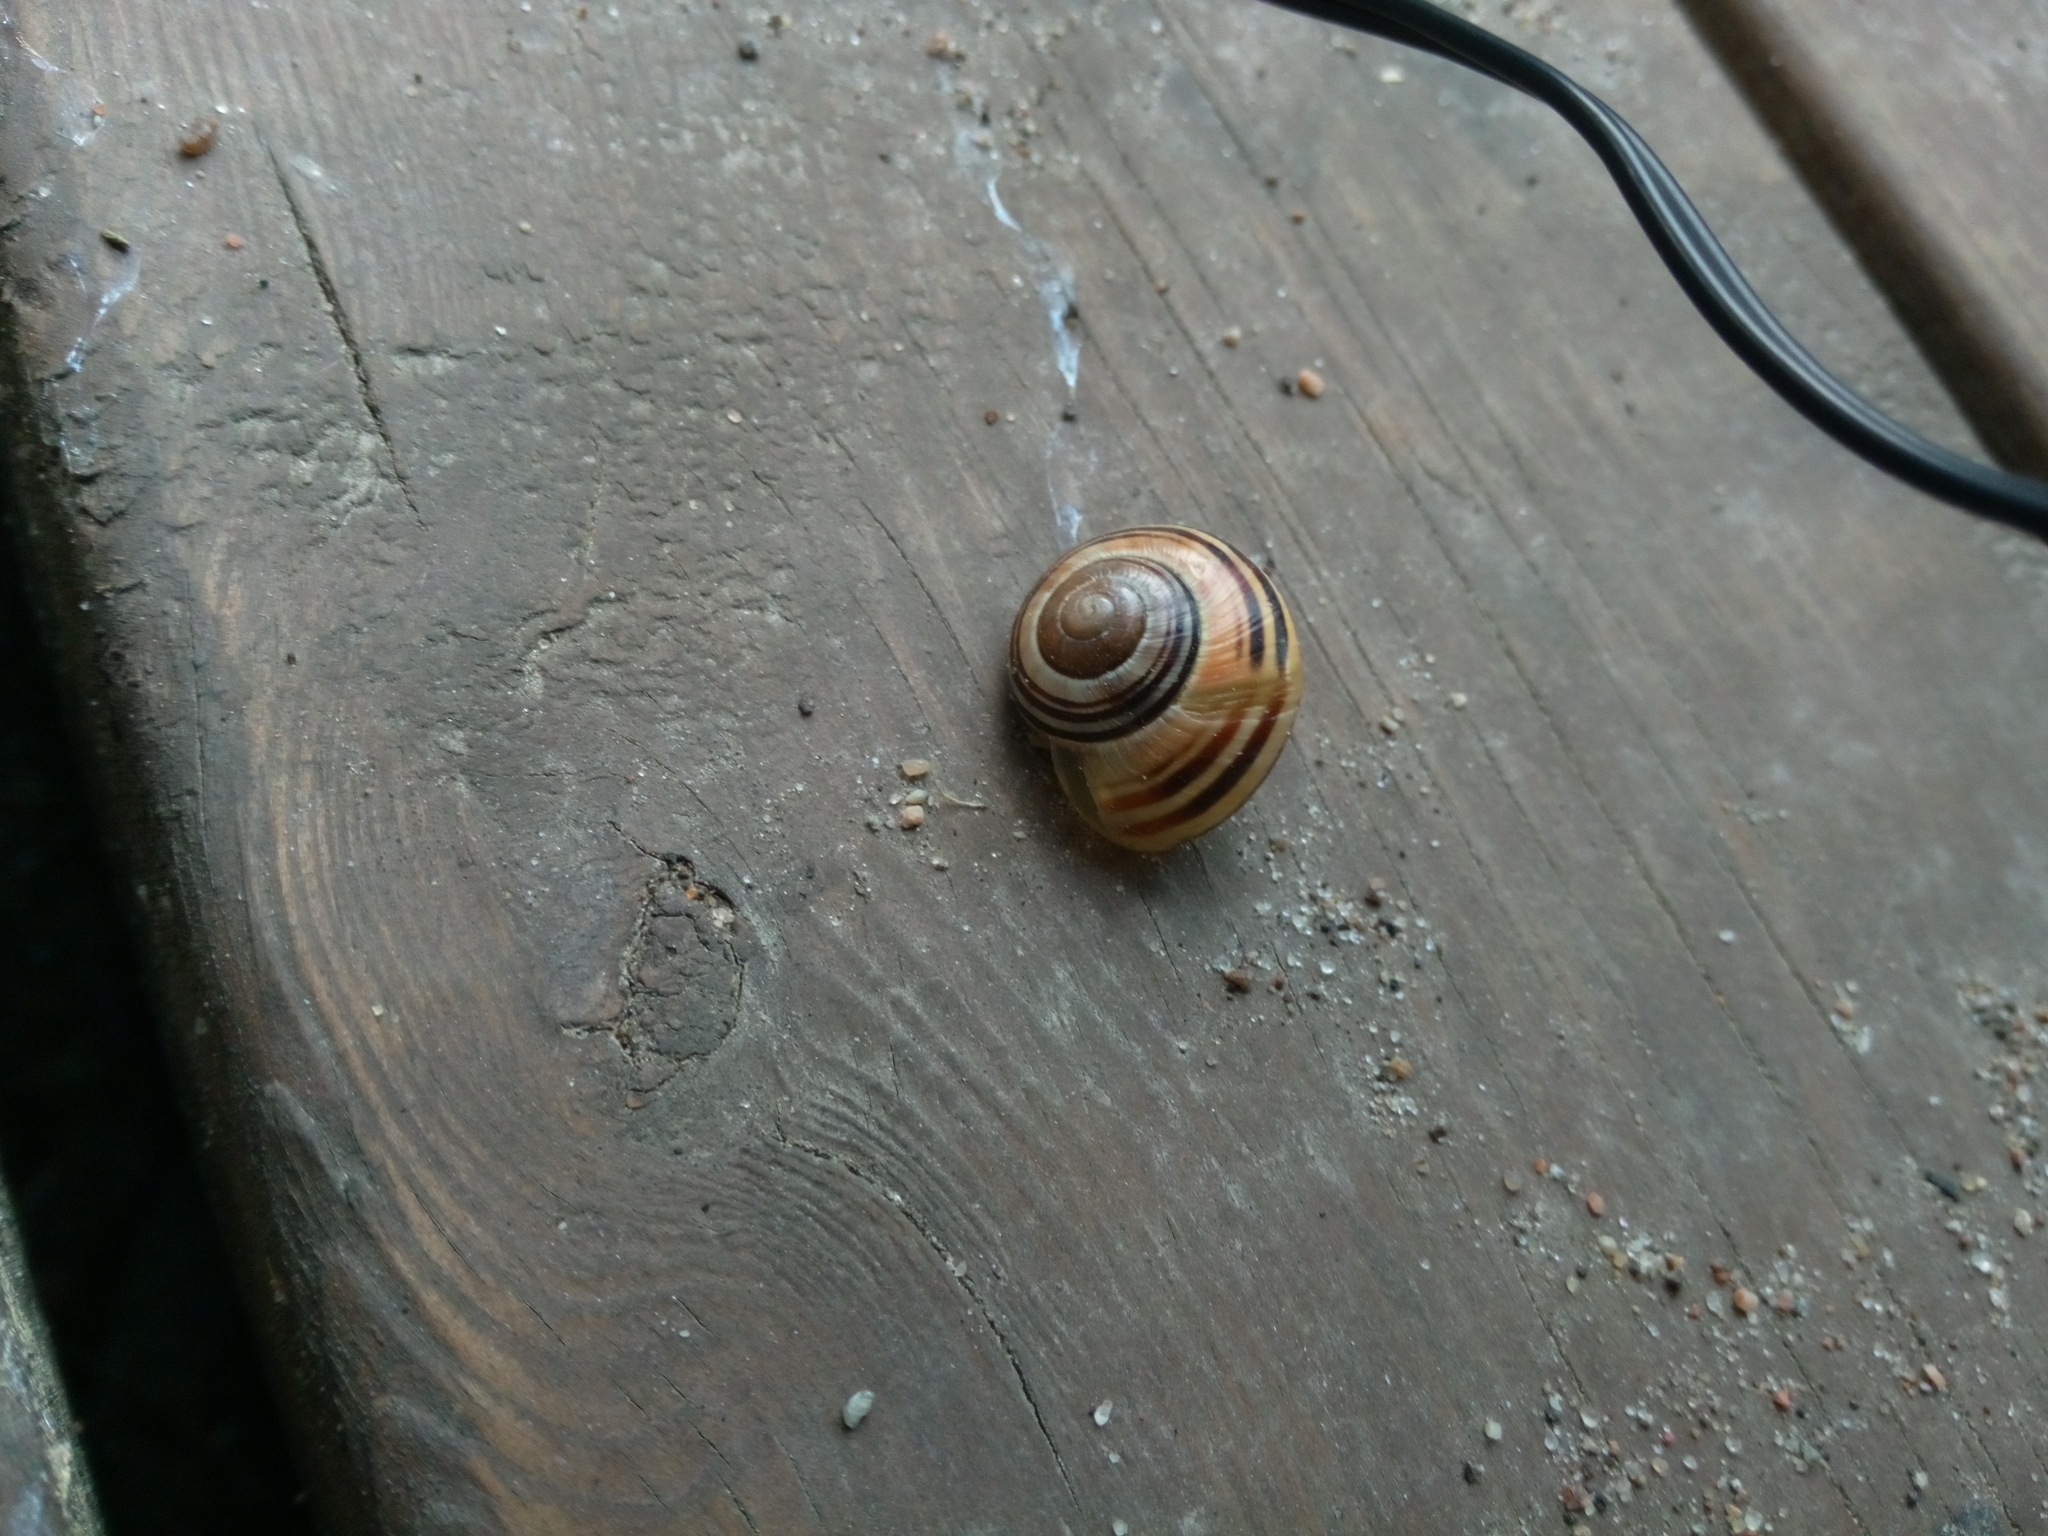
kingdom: Animalia
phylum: Mollusca
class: Gastropoda
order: Stylommatophora
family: Helicidae
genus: Cepaea
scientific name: Cepaea
